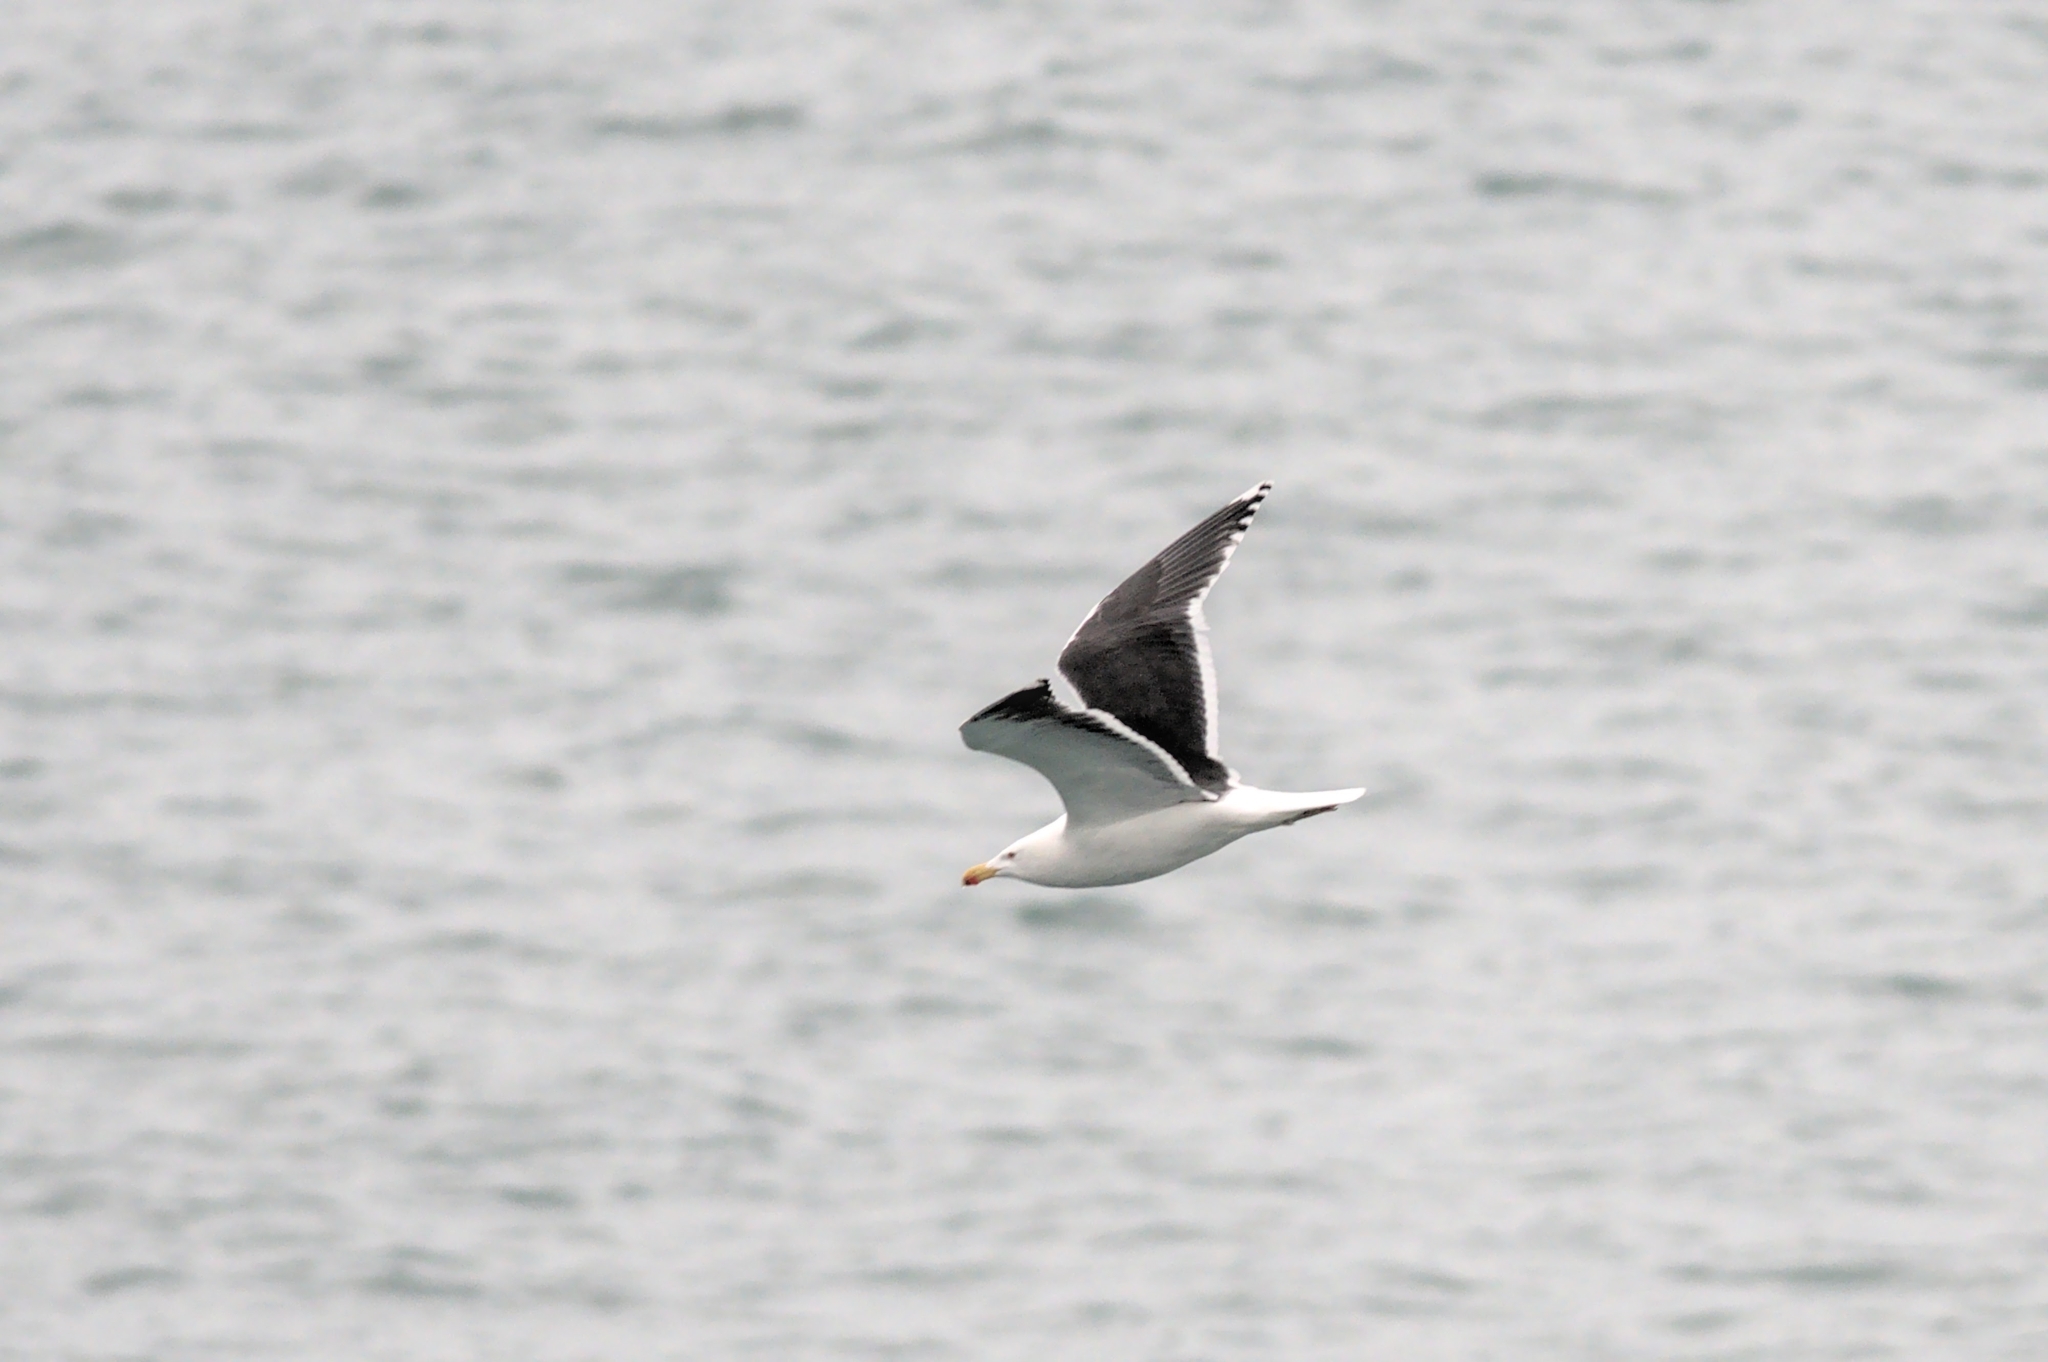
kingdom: Animalia
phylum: Chordata
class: Aves
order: Charadriiformes
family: Laridae
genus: Larus
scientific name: Larus marinus
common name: Great black-backed gull
